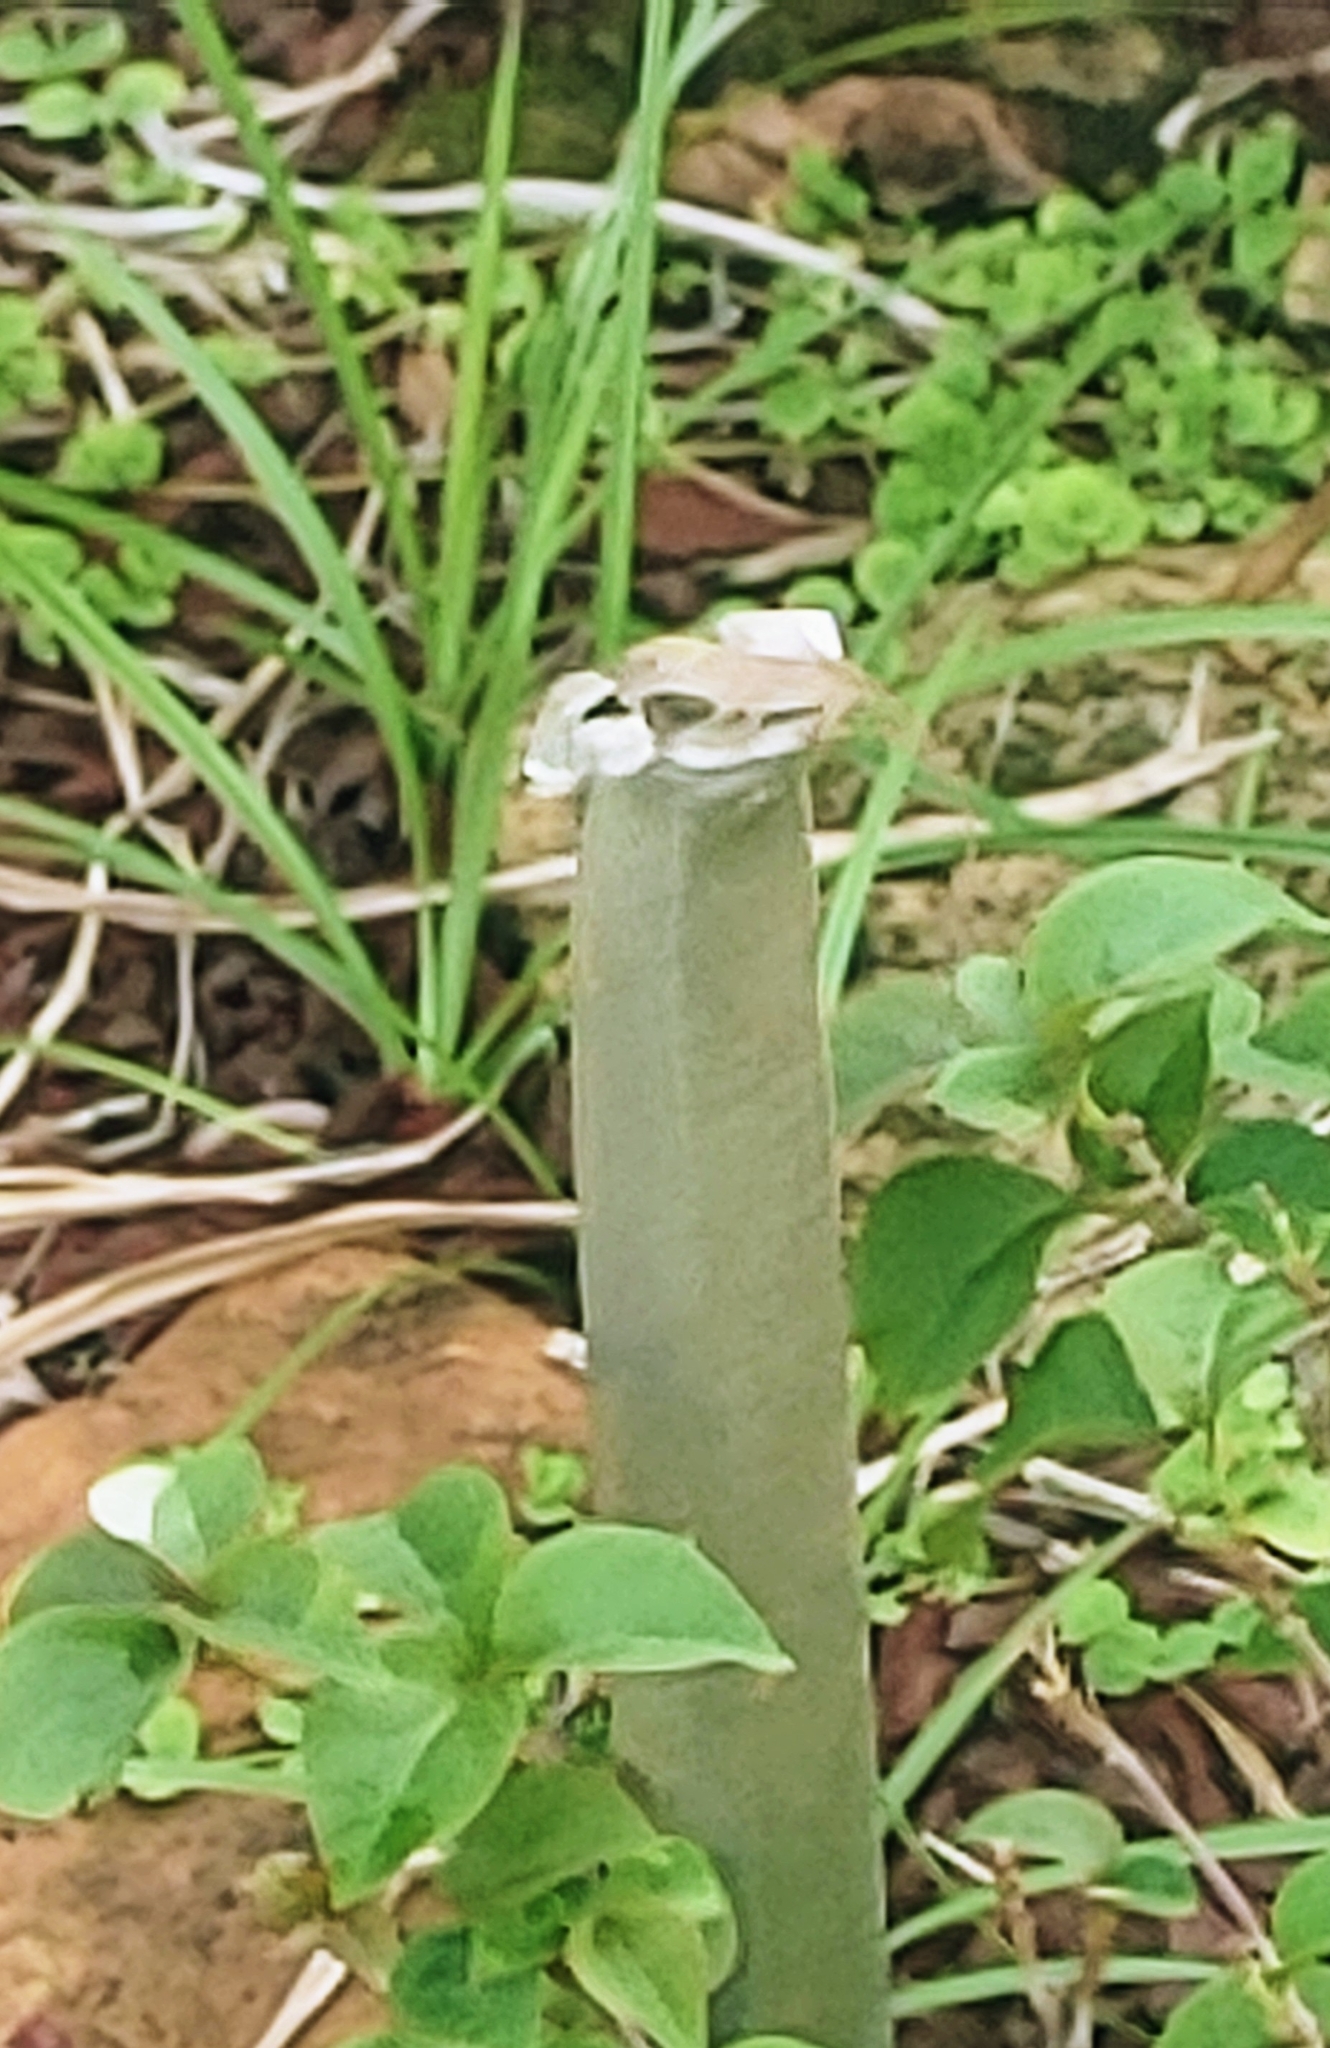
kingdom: Animalia
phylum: Chordata
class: Squamata
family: Dactyloidae
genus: Anolis
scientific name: Anolis sagrei
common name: Brown anole
